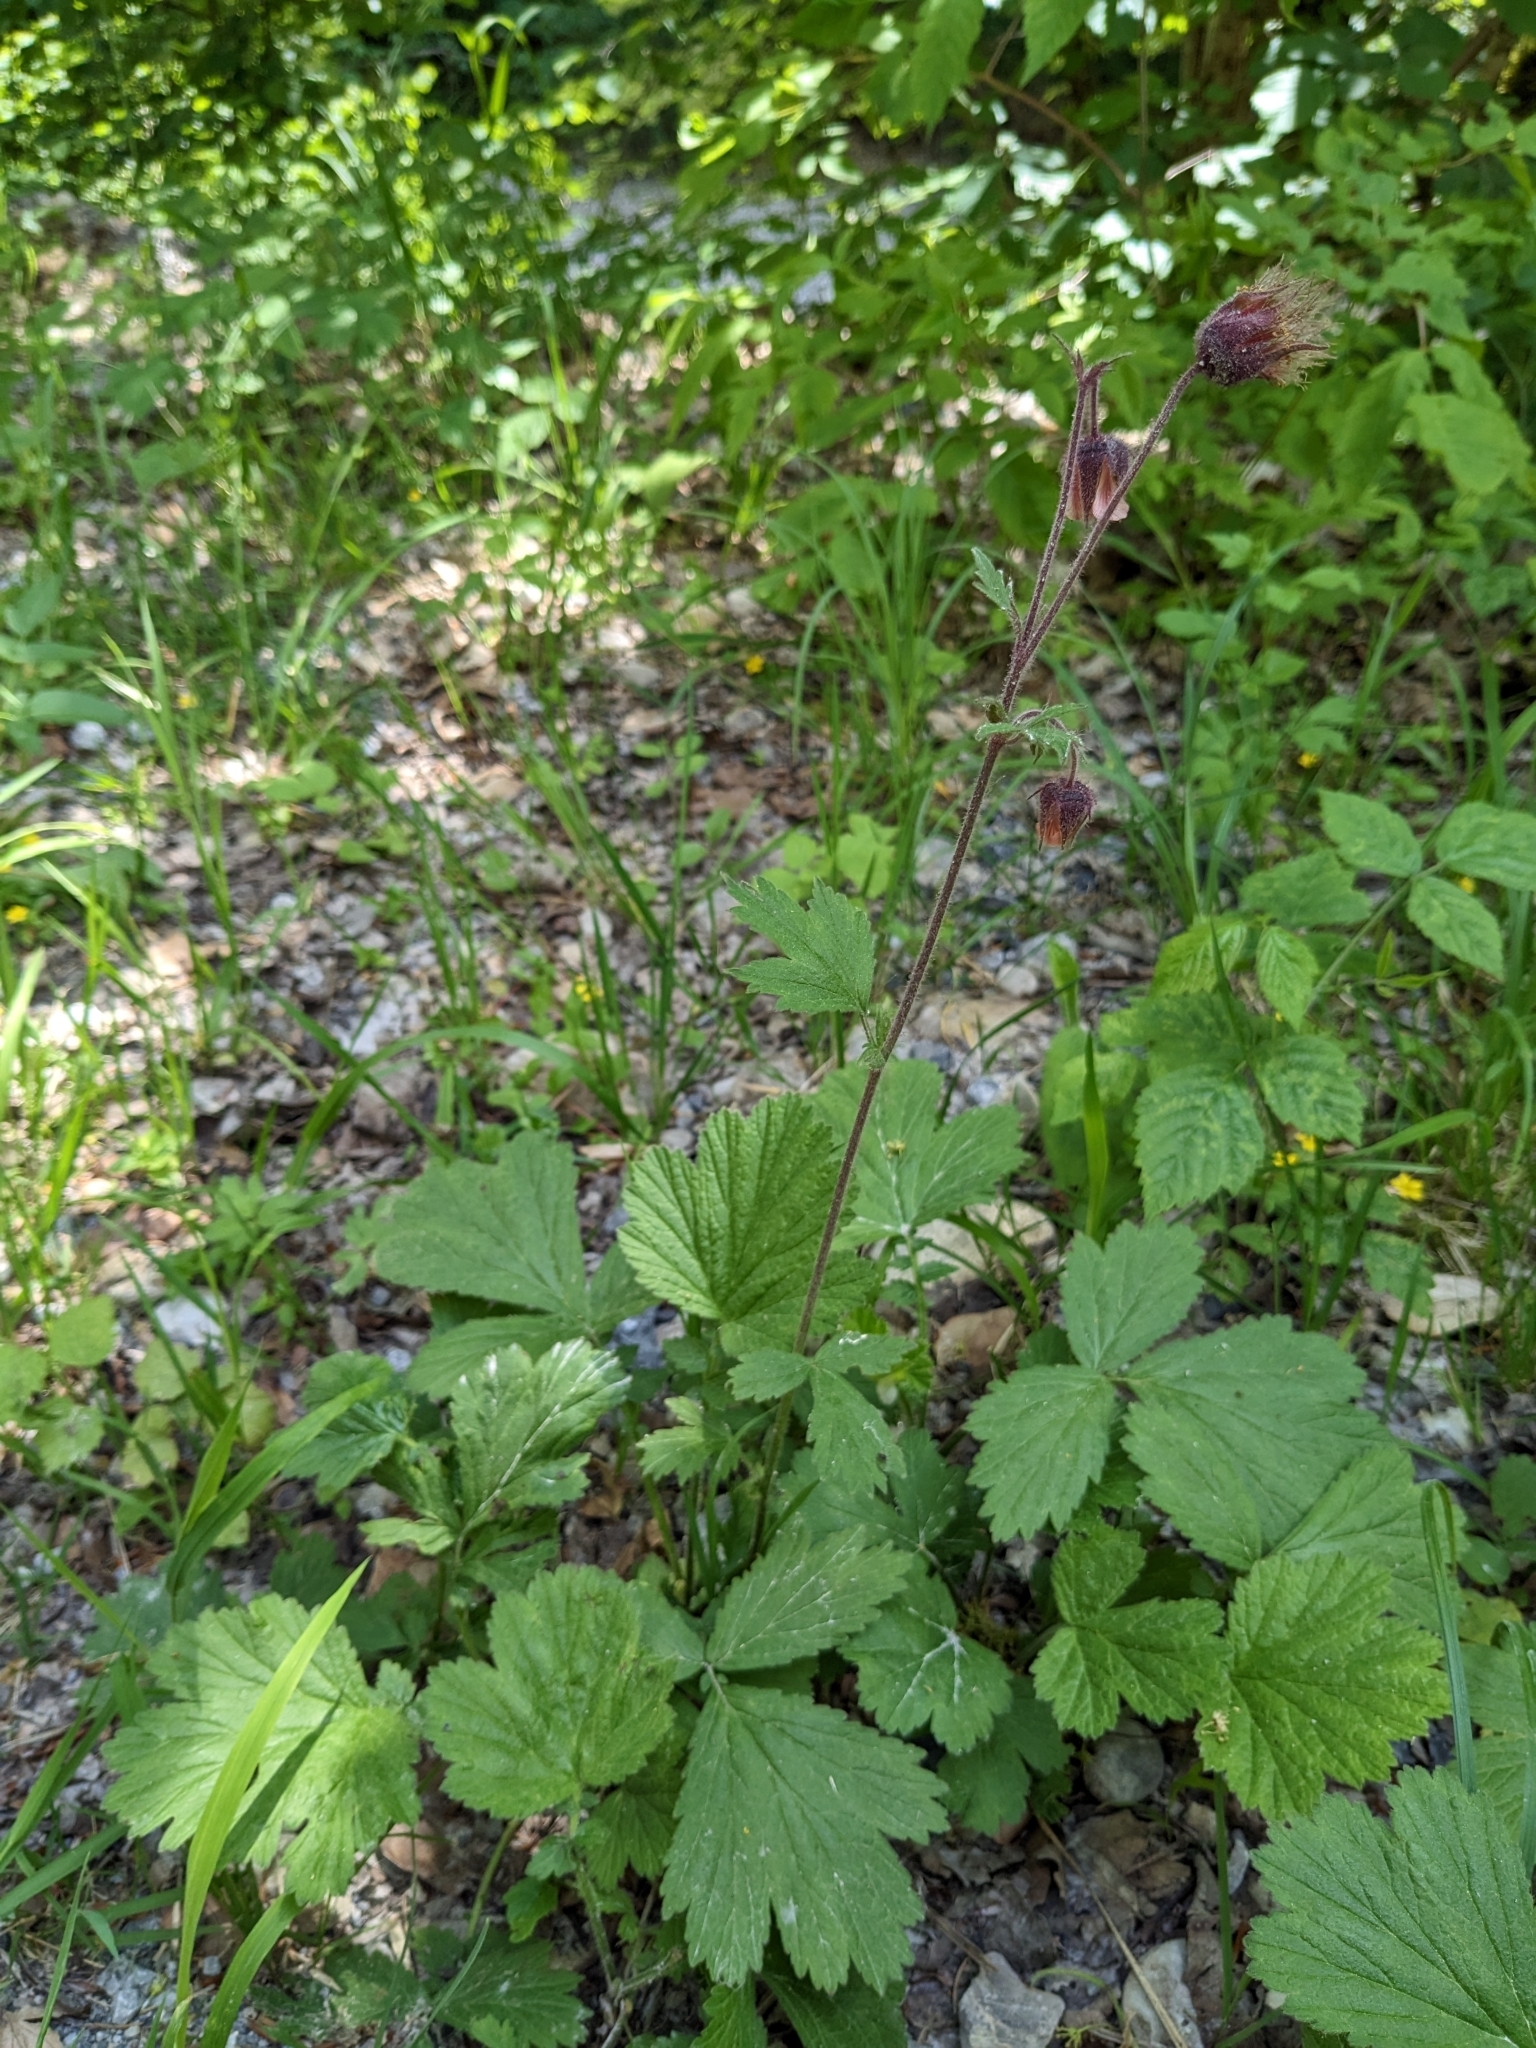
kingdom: Plantae
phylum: Tracheophyta
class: Magnoliopsida
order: Rosales
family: Rosaceae
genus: Geum
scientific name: Geum rivale
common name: Water avens
